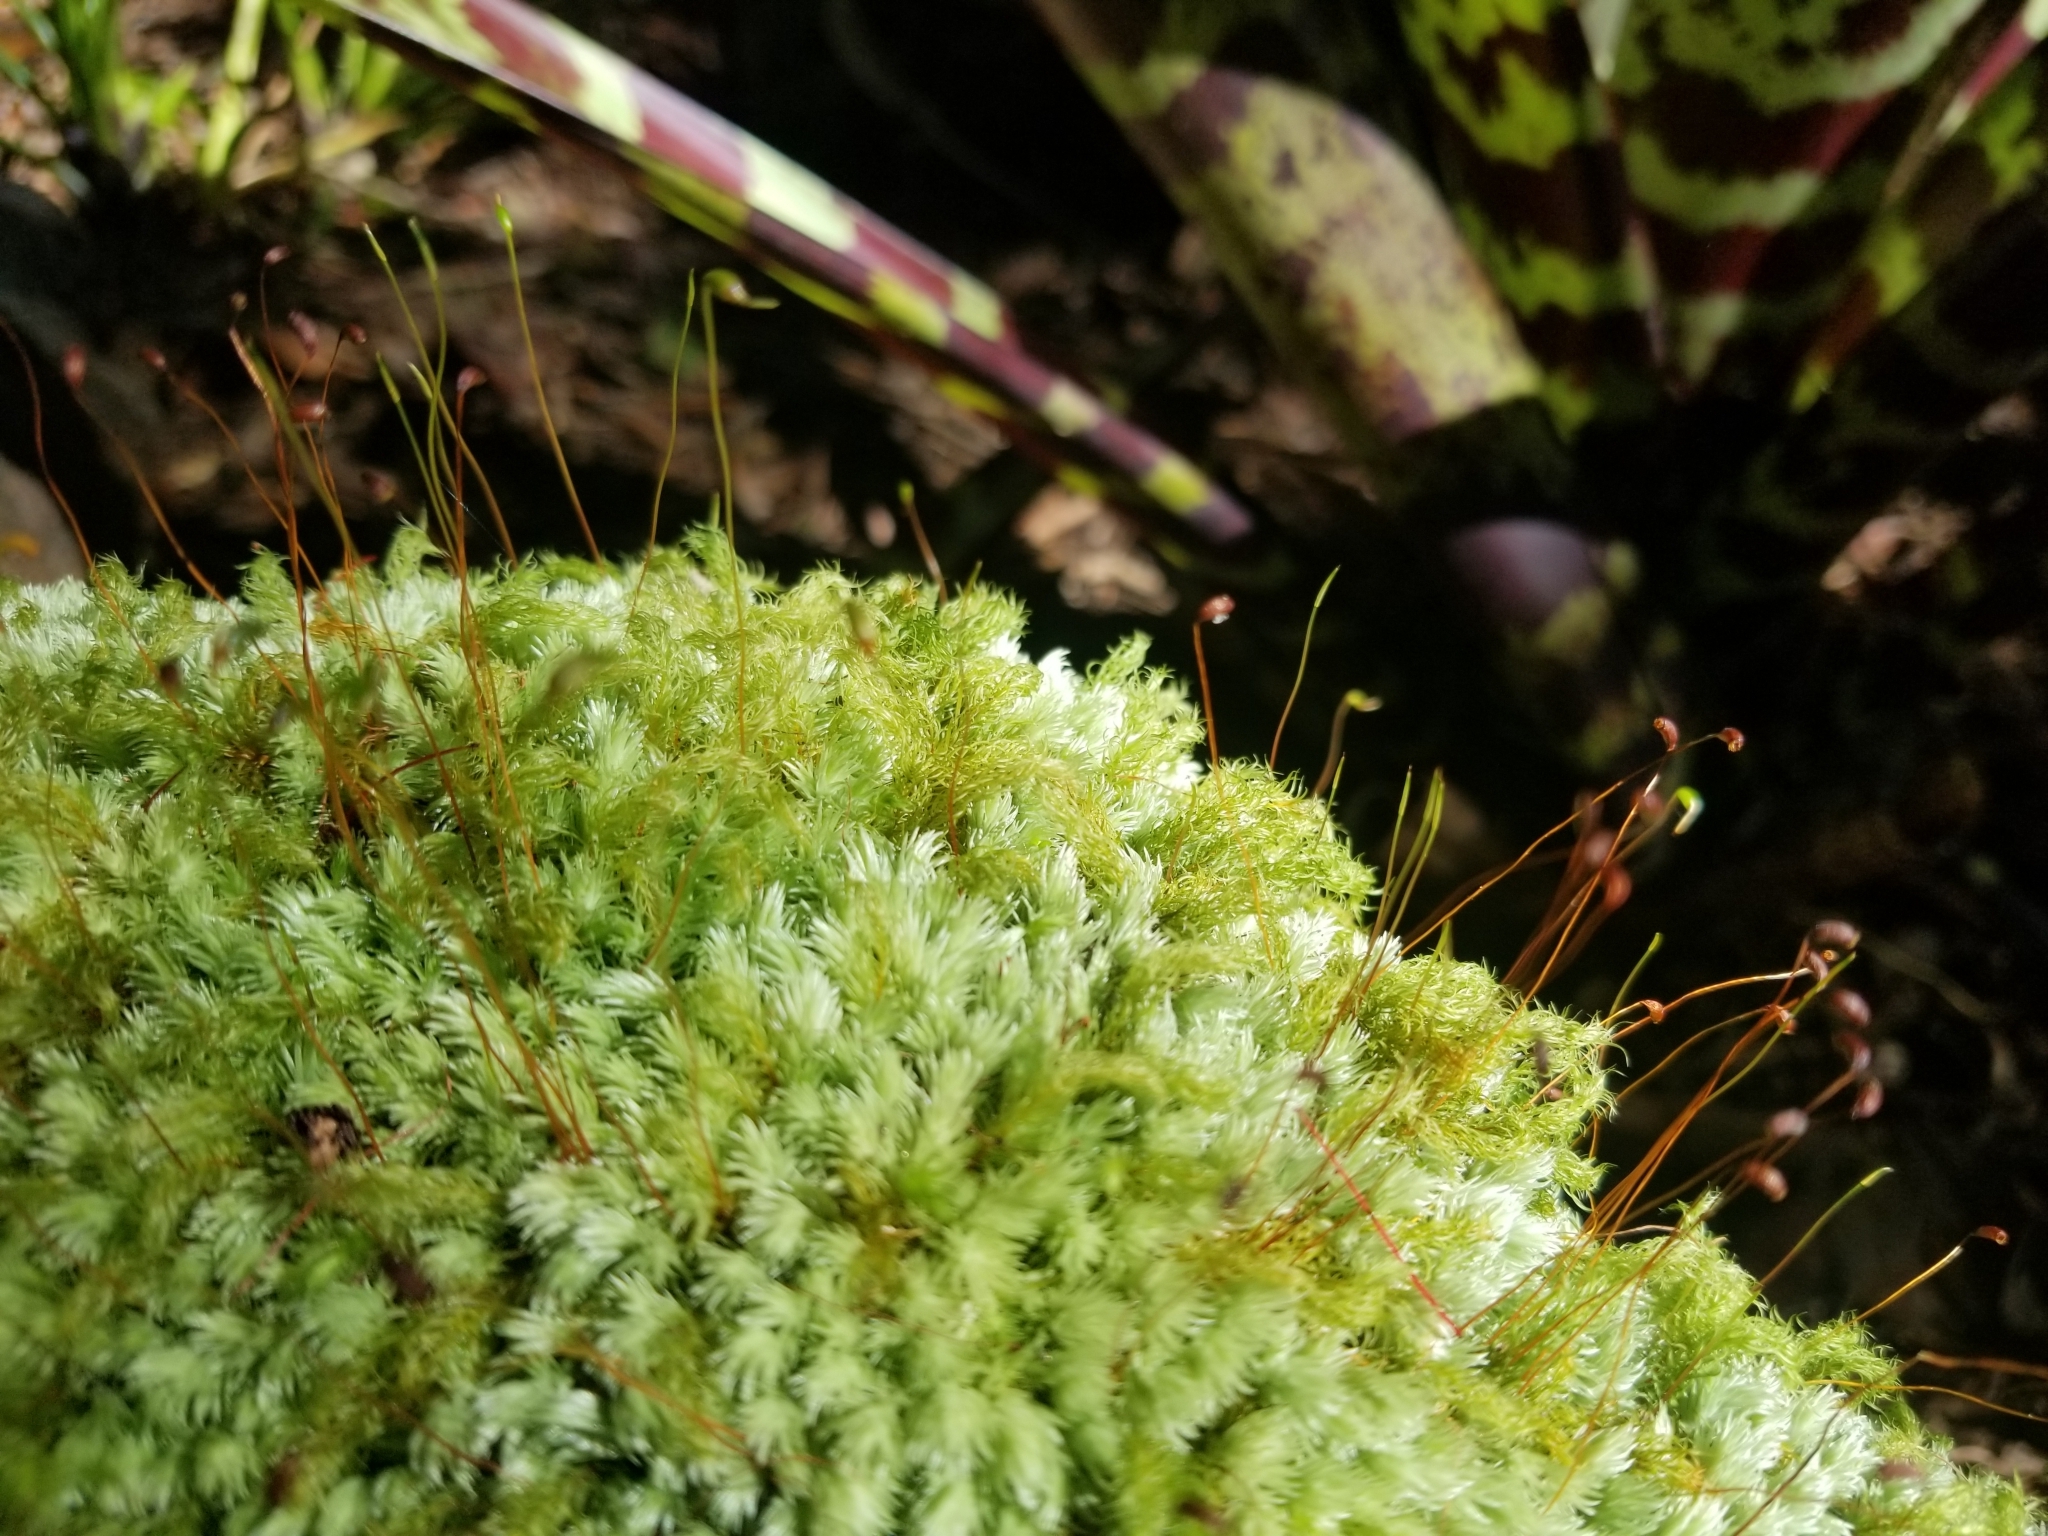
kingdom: Plantae
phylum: Bryophyta
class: Bryopsida
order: Dicranales
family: Leucobryaceae
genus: Leucobryum
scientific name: Leucobryum gracile
